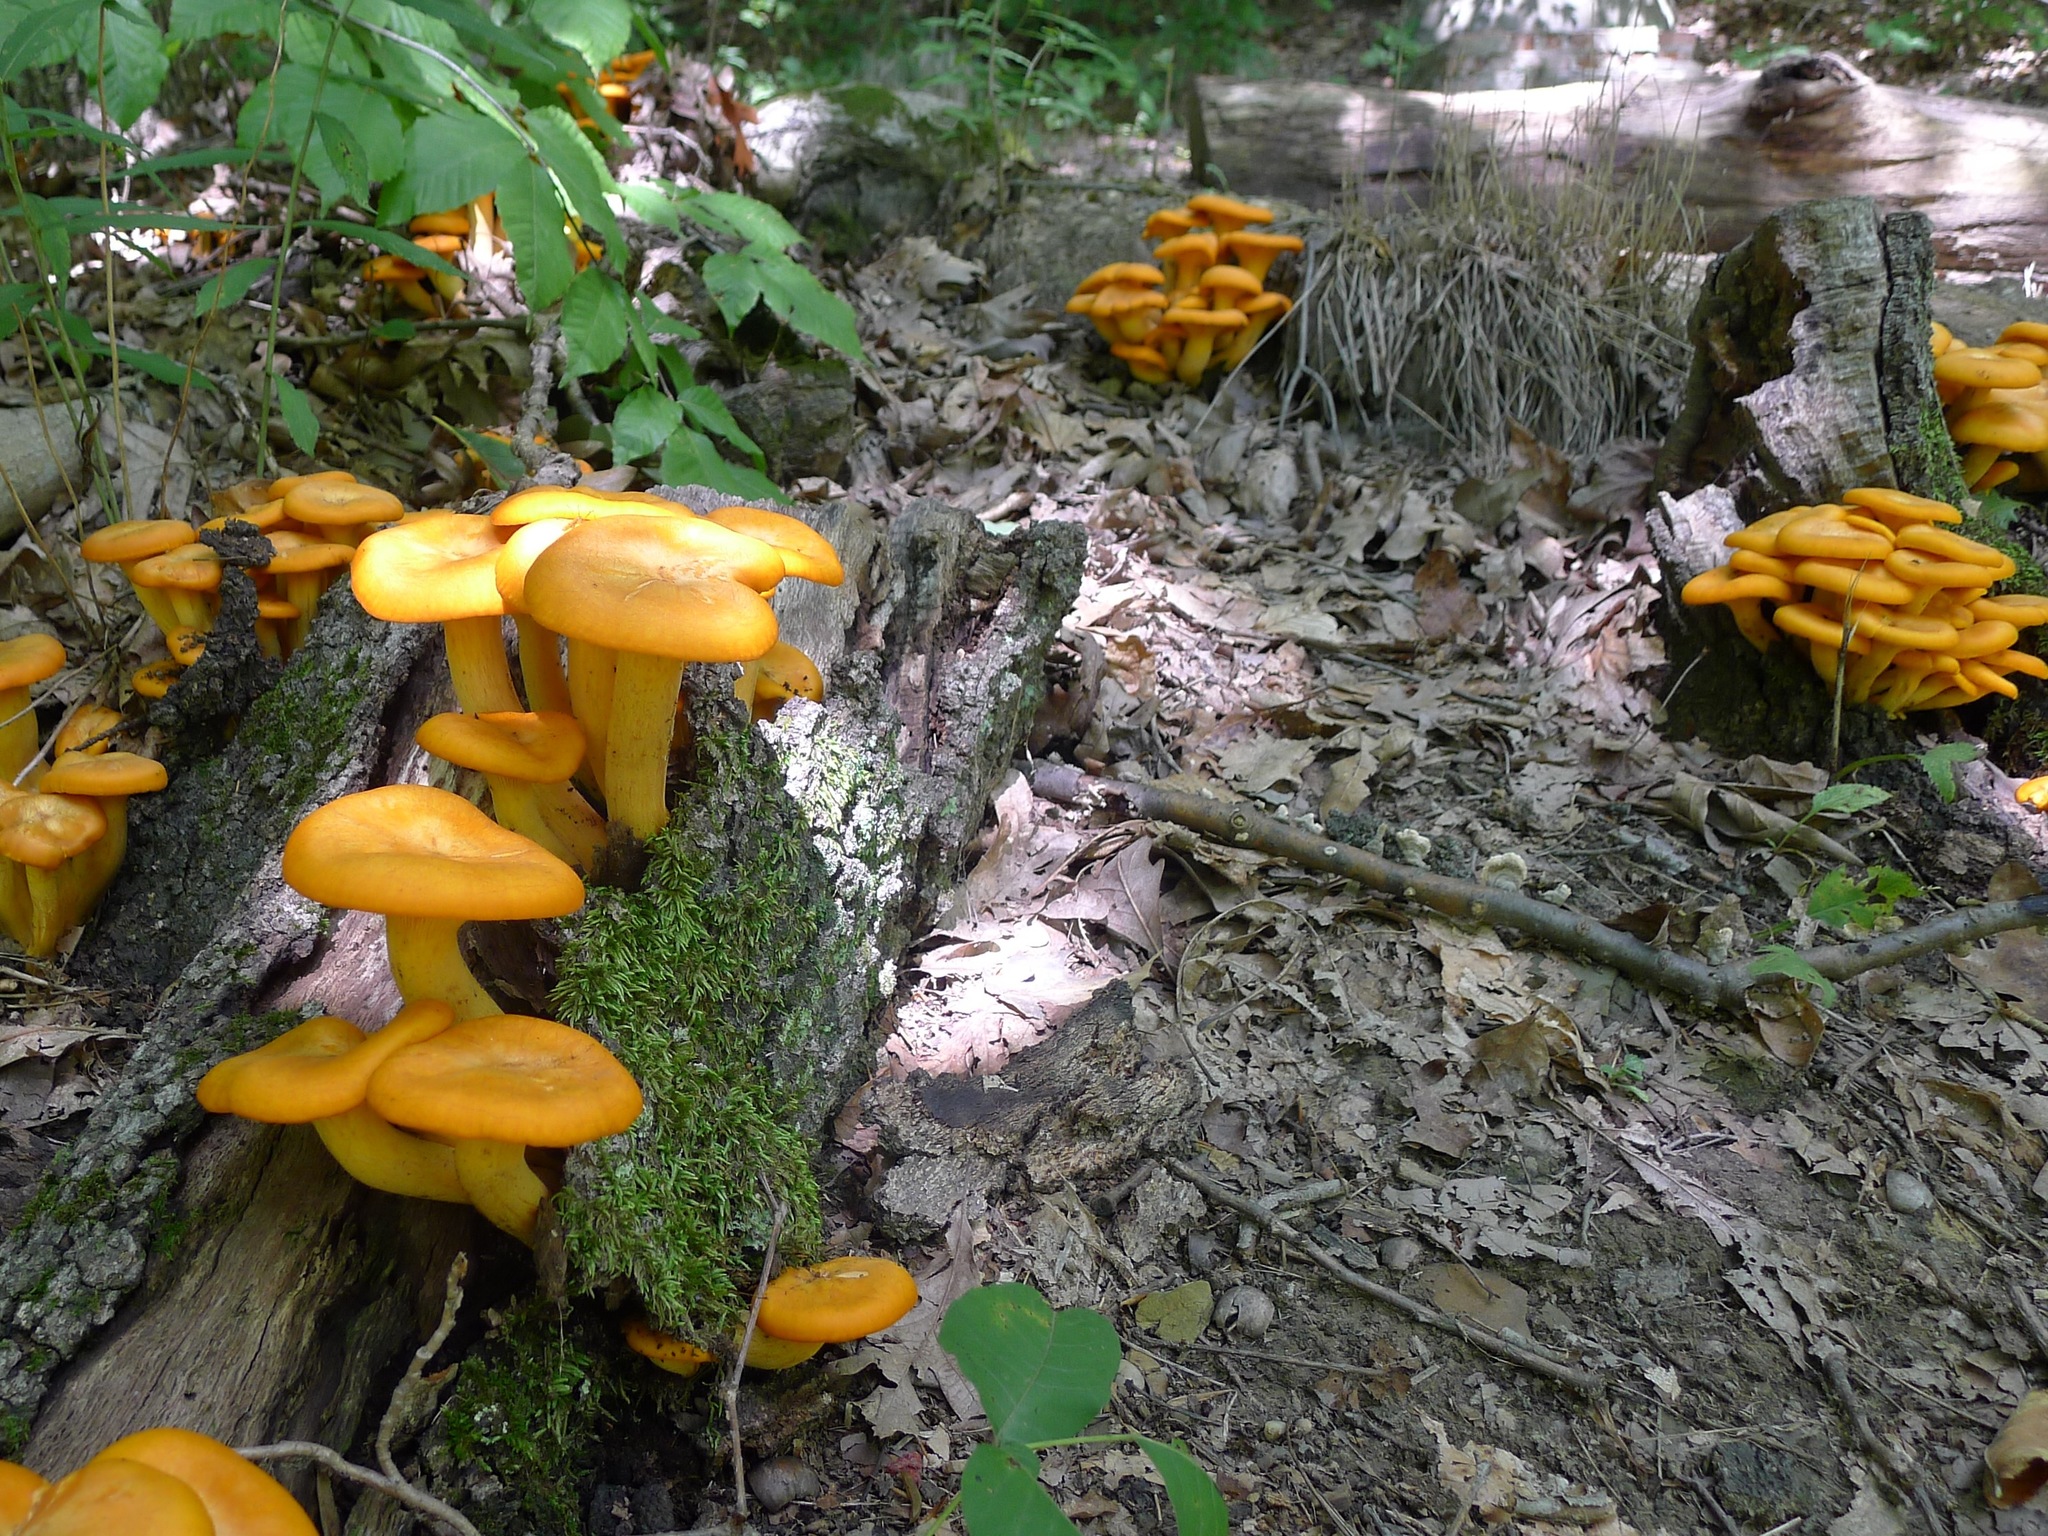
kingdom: Fungi
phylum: Basidiomycota
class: Agaricomycetes
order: Agaricales
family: Omphalotaceae
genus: Omphalotus
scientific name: Omphalotus illudens
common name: Jack o lantern
